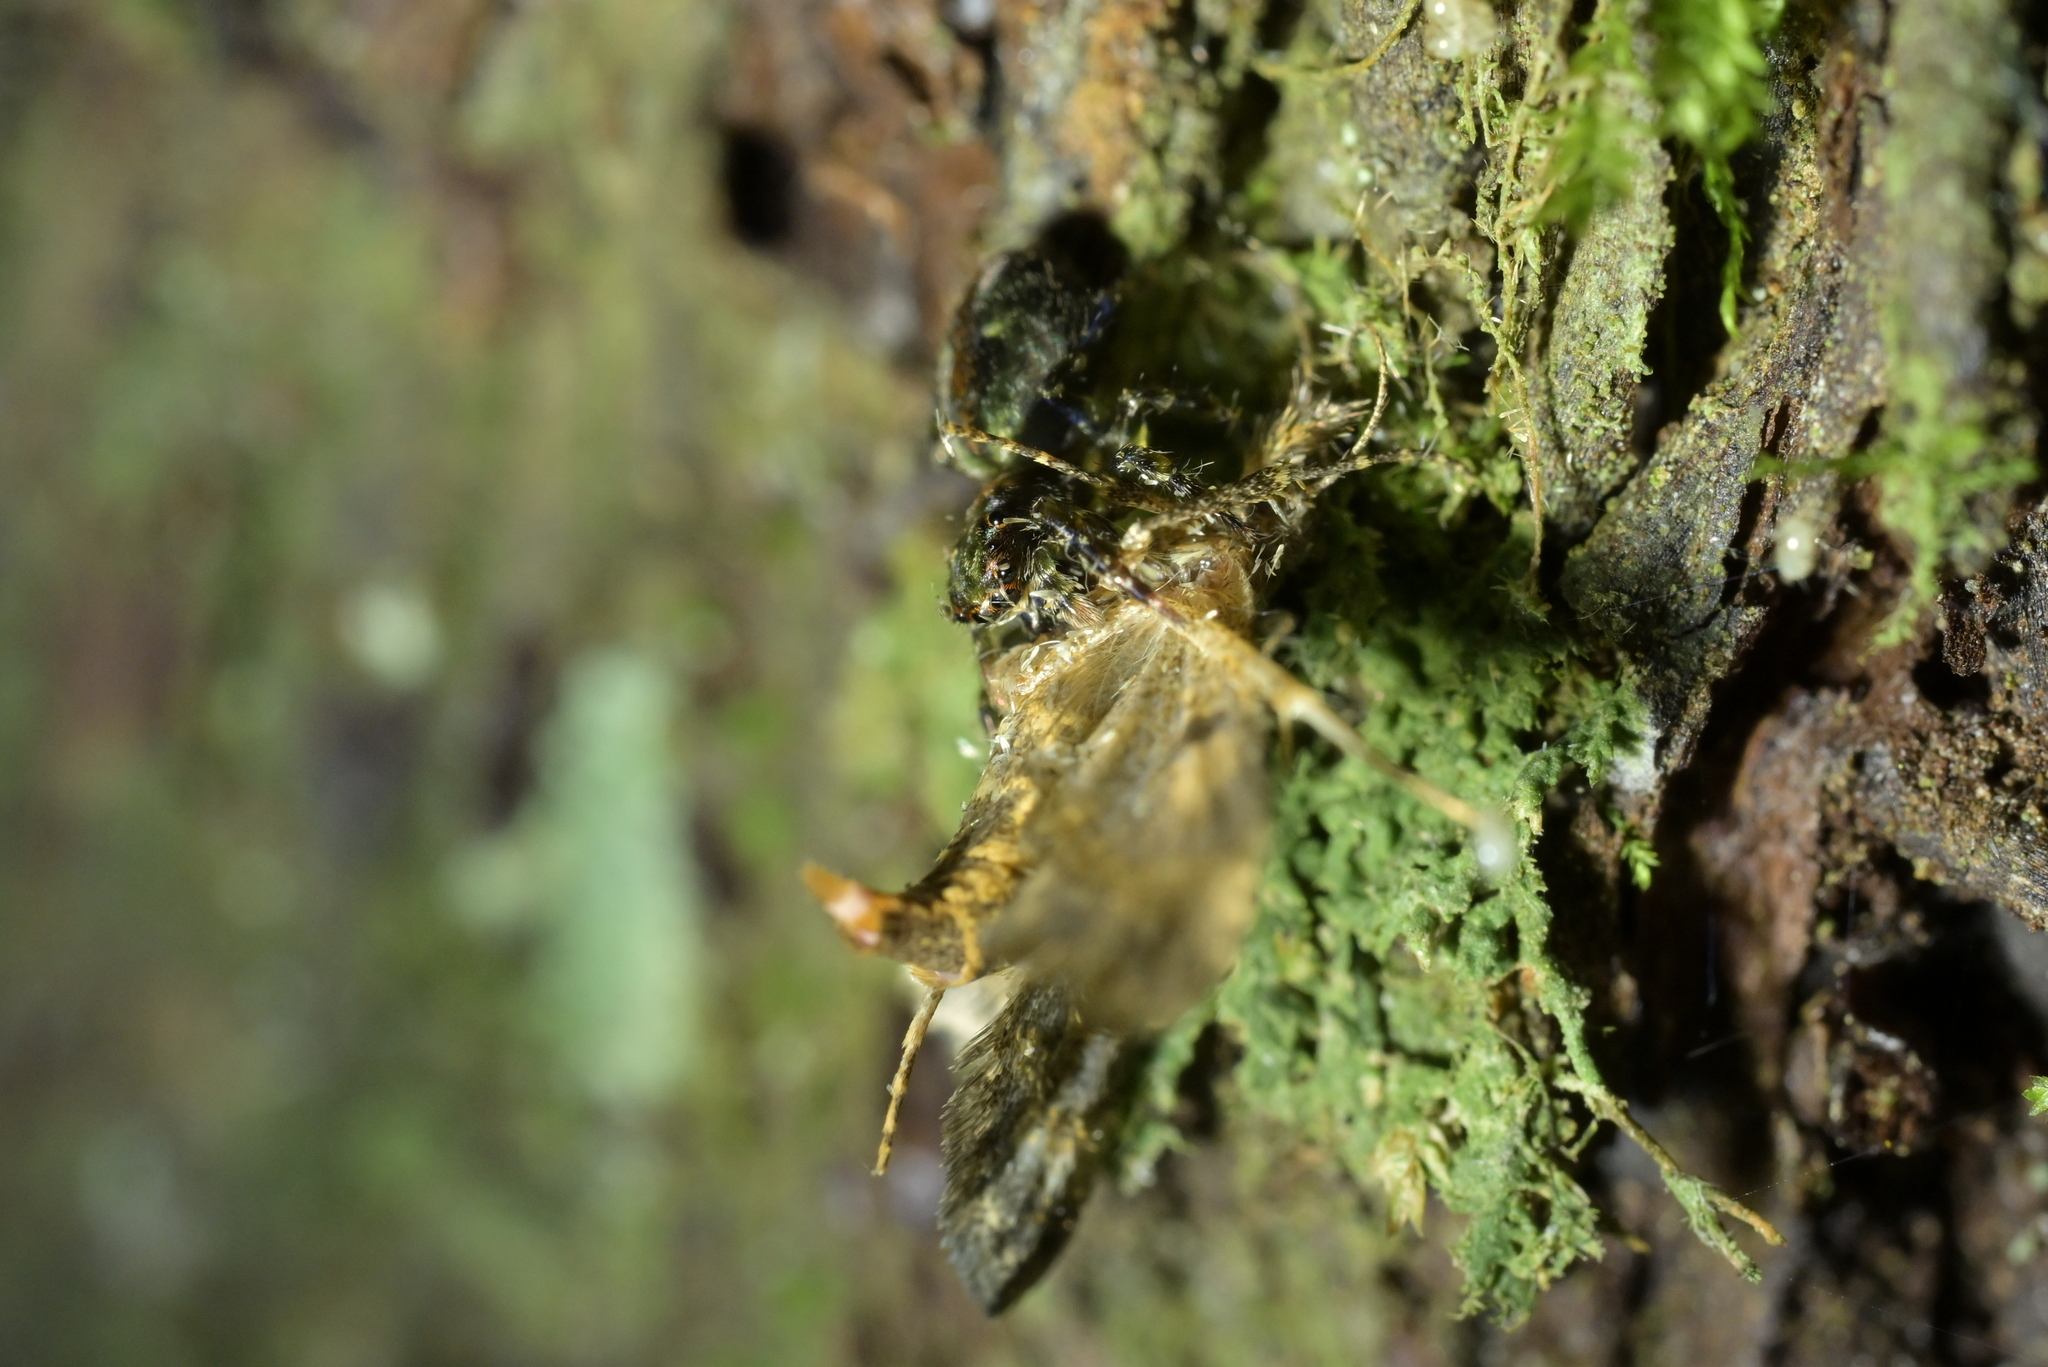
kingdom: Animalia
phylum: Arthropoda
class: Arachnida
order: Araneae
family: Salticidae
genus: Hinewaia
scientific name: Hinewaia embolica
